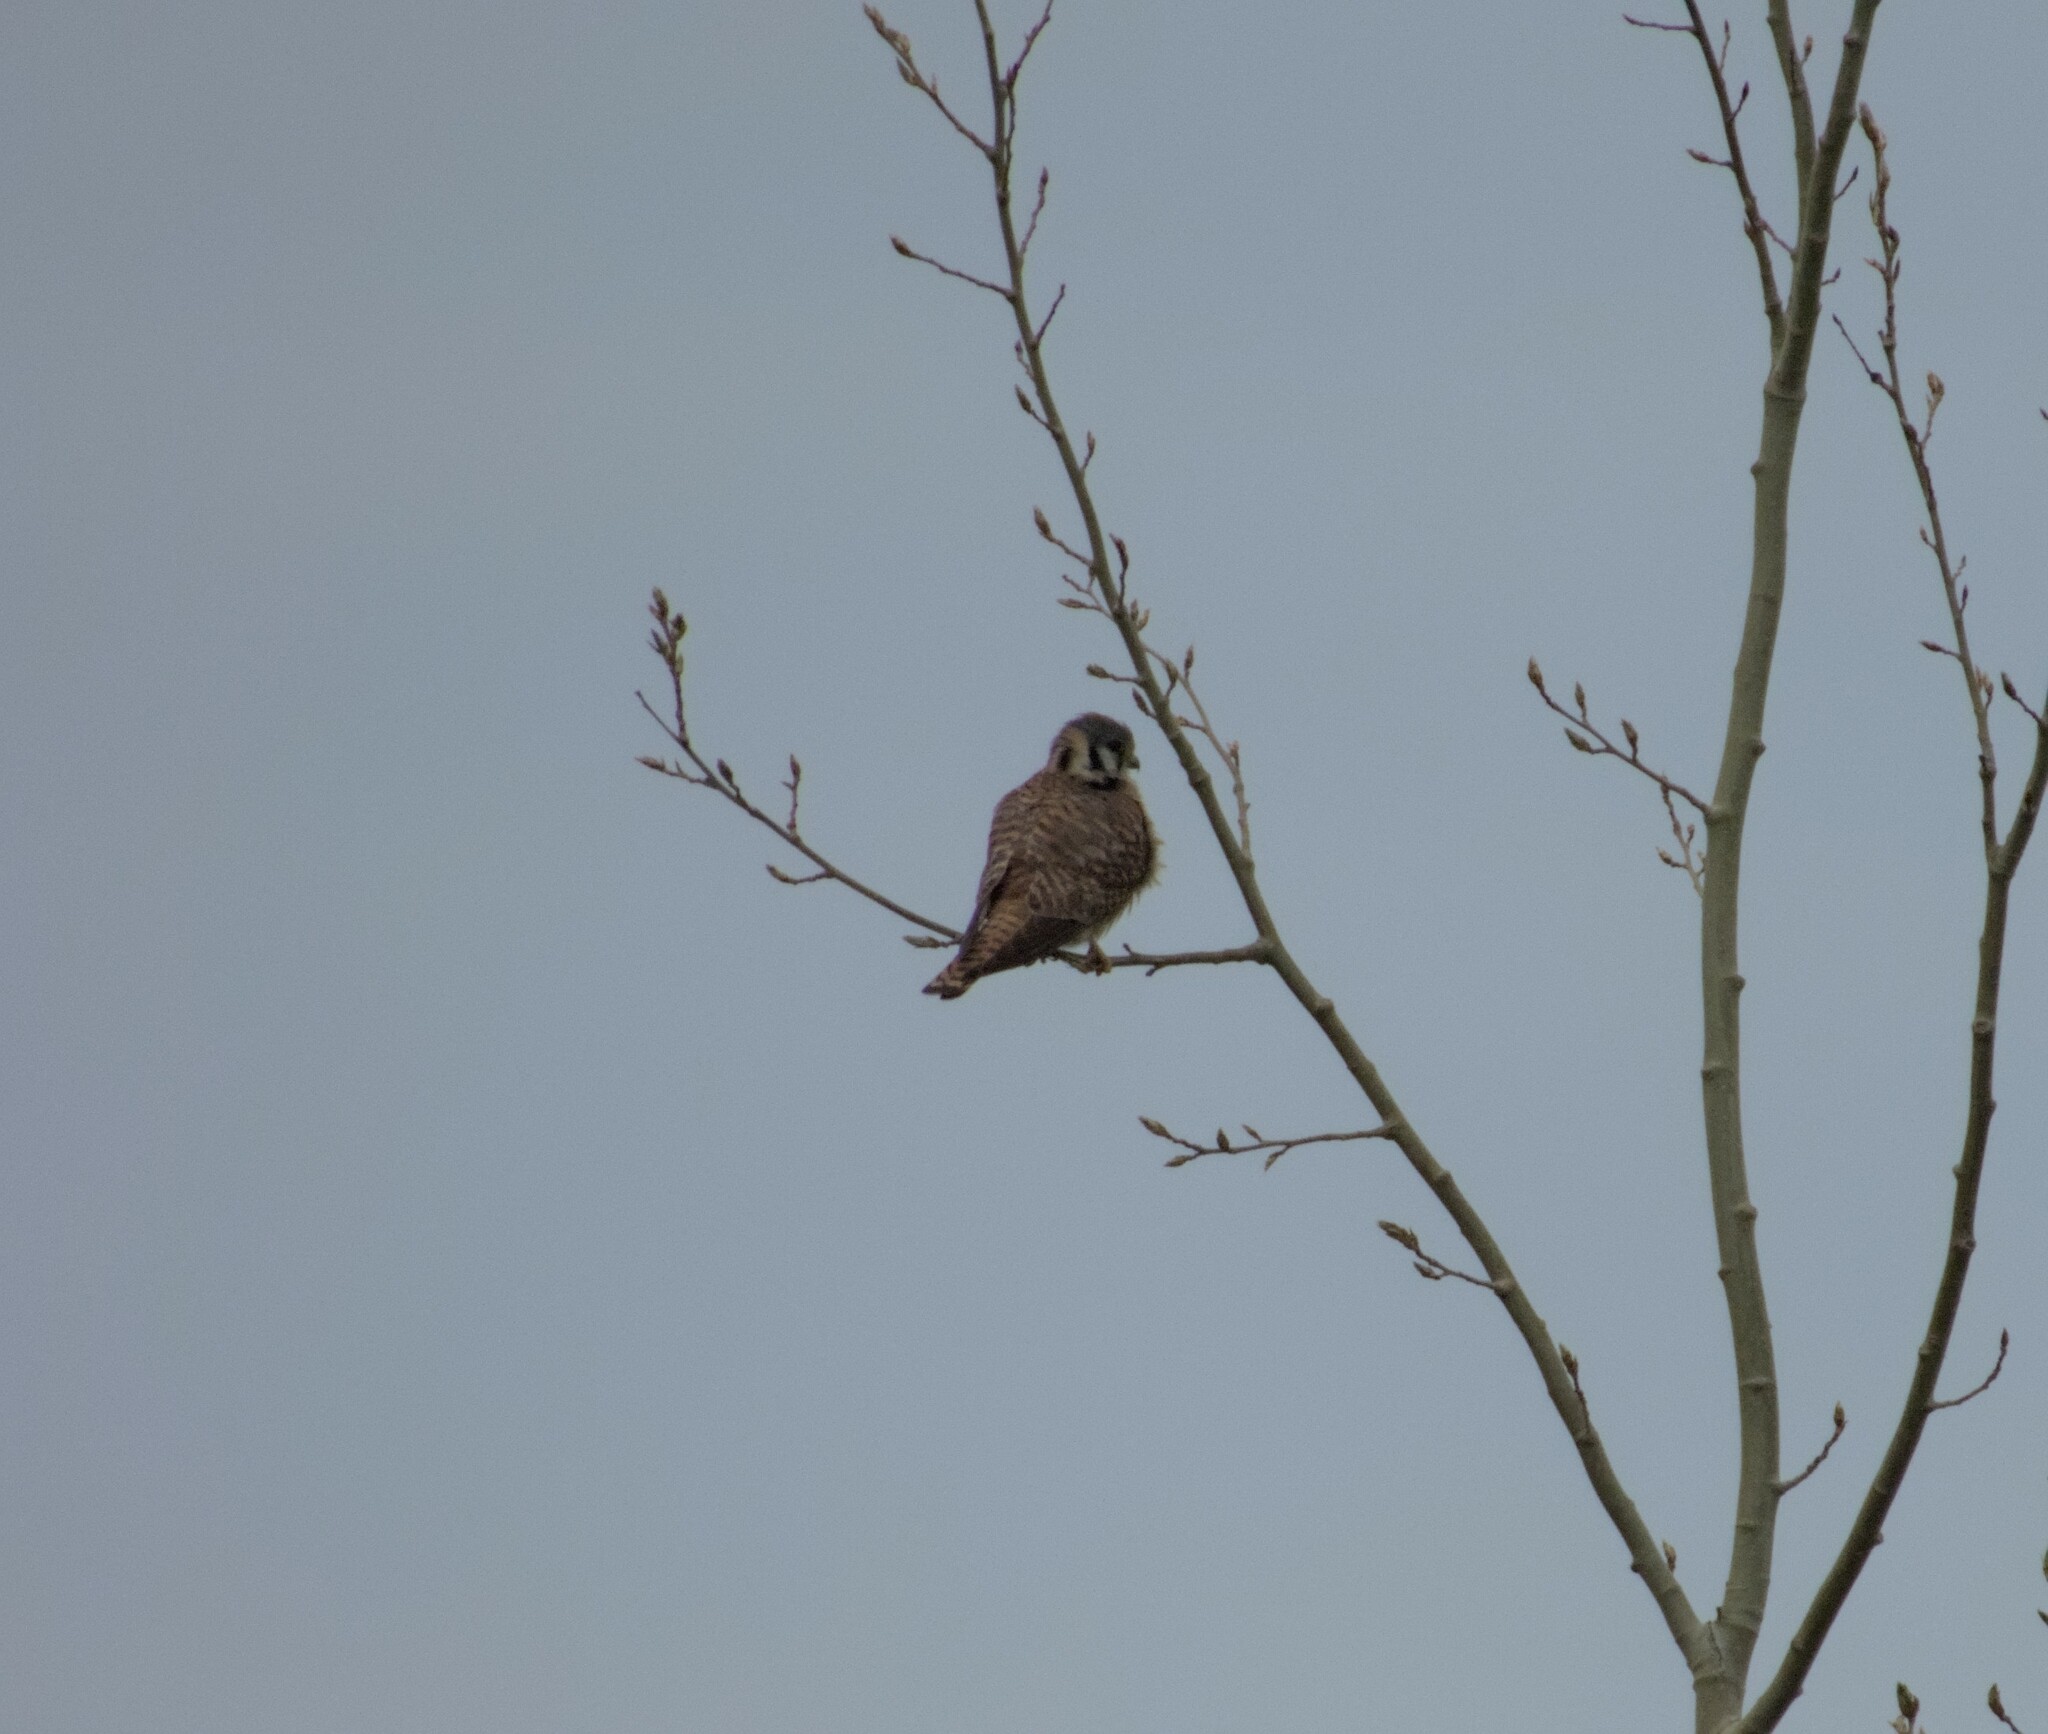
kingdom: Animalia
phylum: Chordata
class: Aves
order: Falconiformes
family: Falconidae
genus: Falco
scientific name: Falco sparverius
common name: American kestrel
